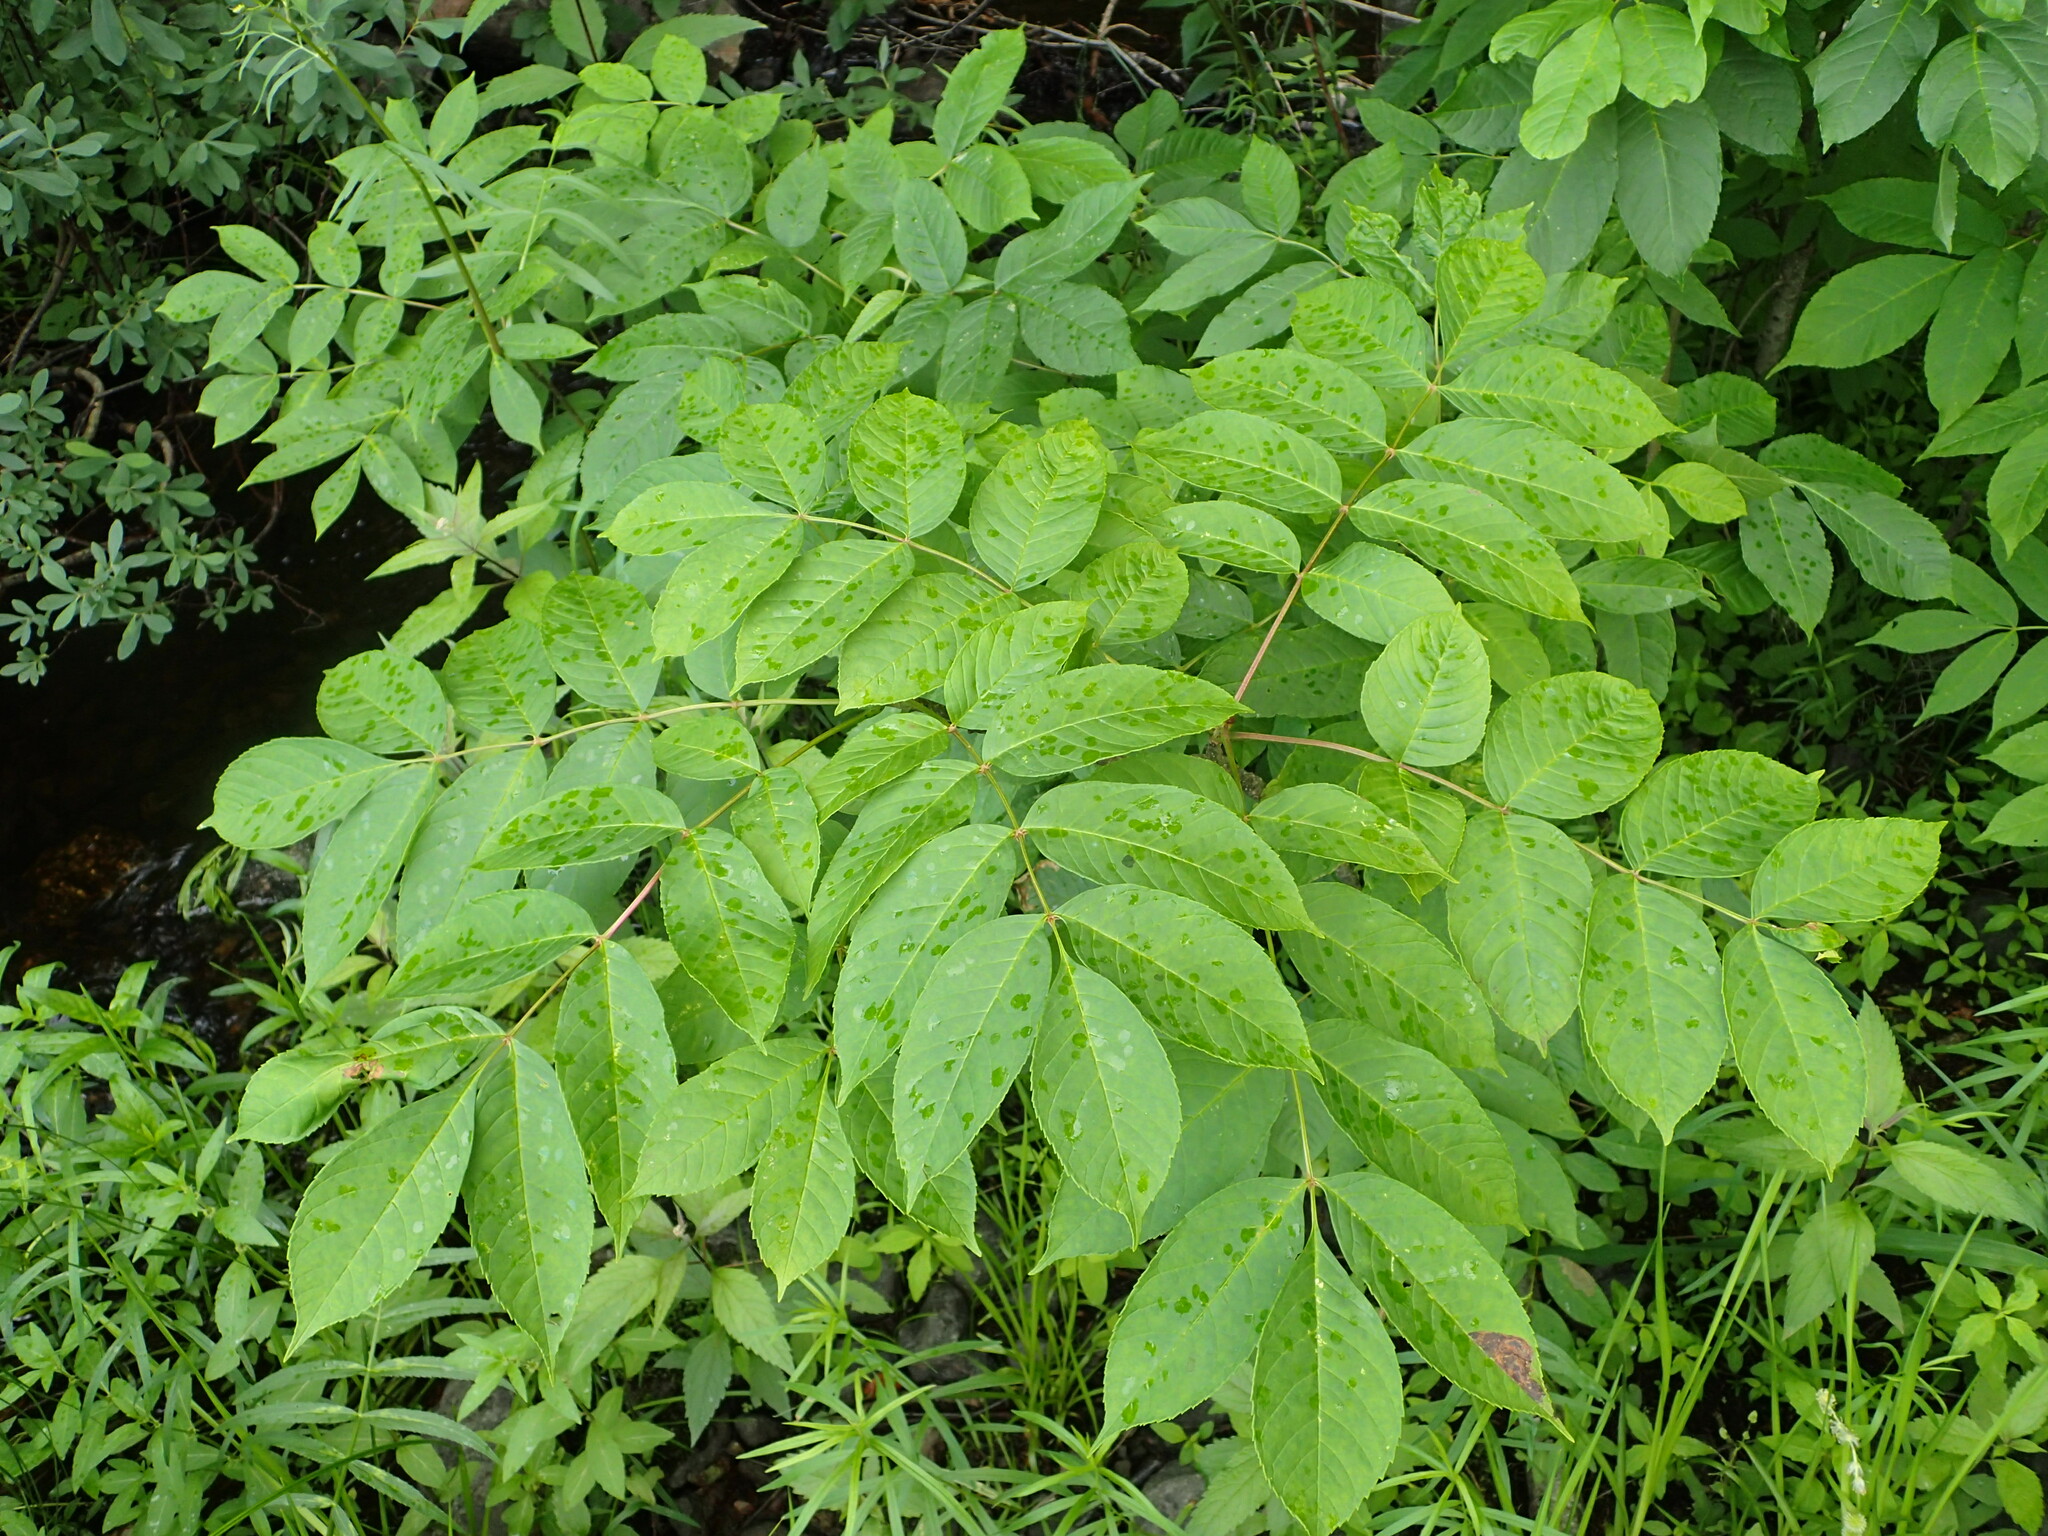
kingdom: Plantae
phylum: Tracheophyta
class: Magnoliopsida
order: Lamiales
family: Oleaceae
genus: Fraxinus
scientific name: Fraxinus nigra
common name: Black ash
